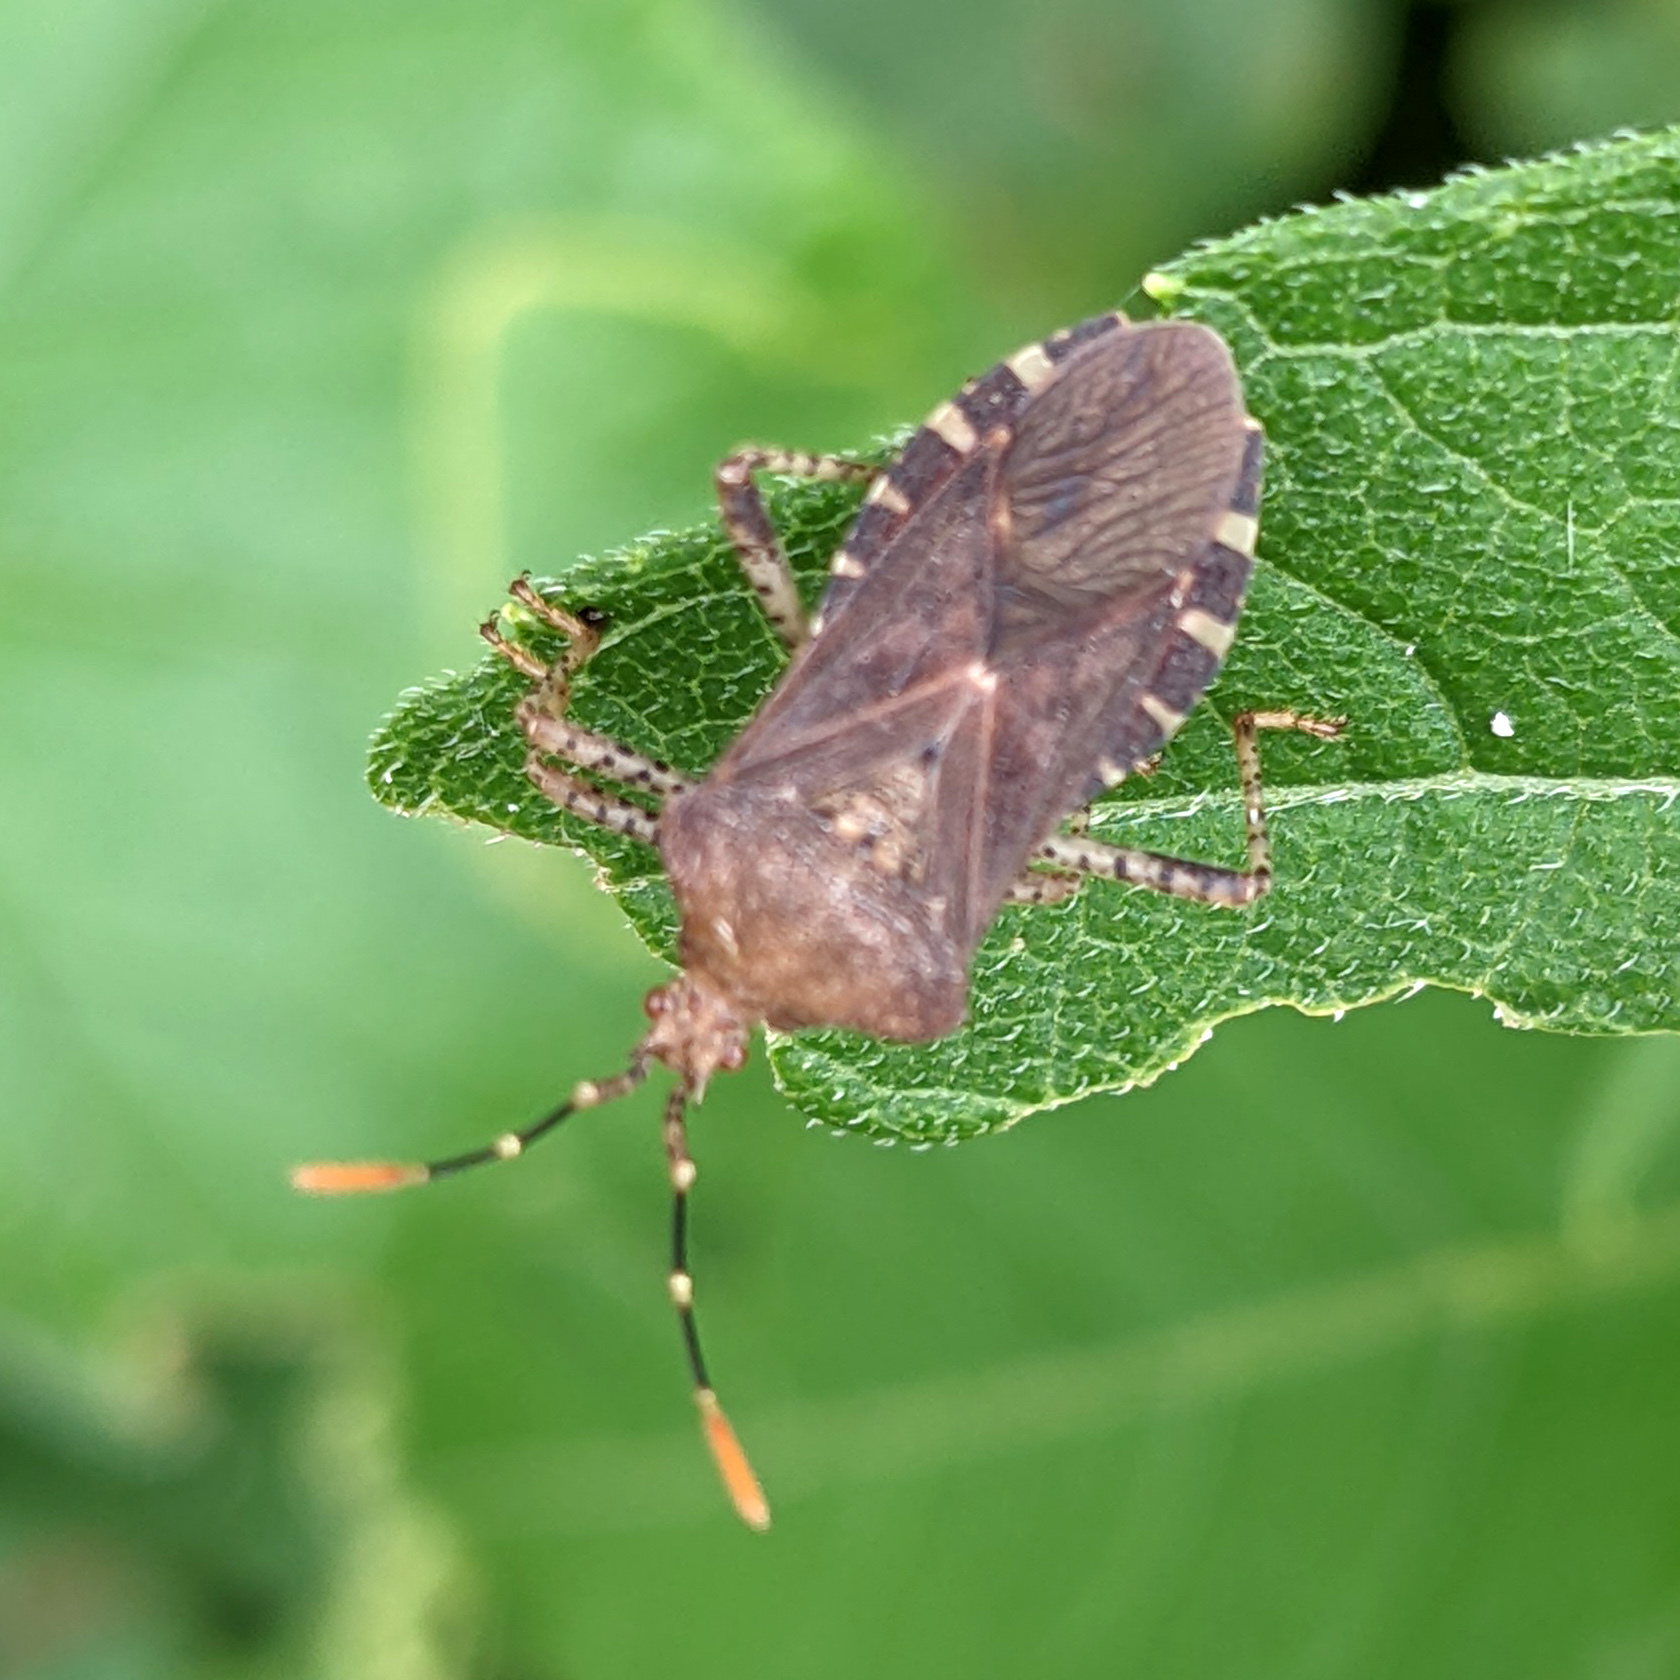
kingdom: Animalia
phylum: Arthropoda
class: Insecta
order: Hemiptera
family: Coreidae
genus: Anasa
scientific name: Anasa armigera
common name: Horned squash bug
